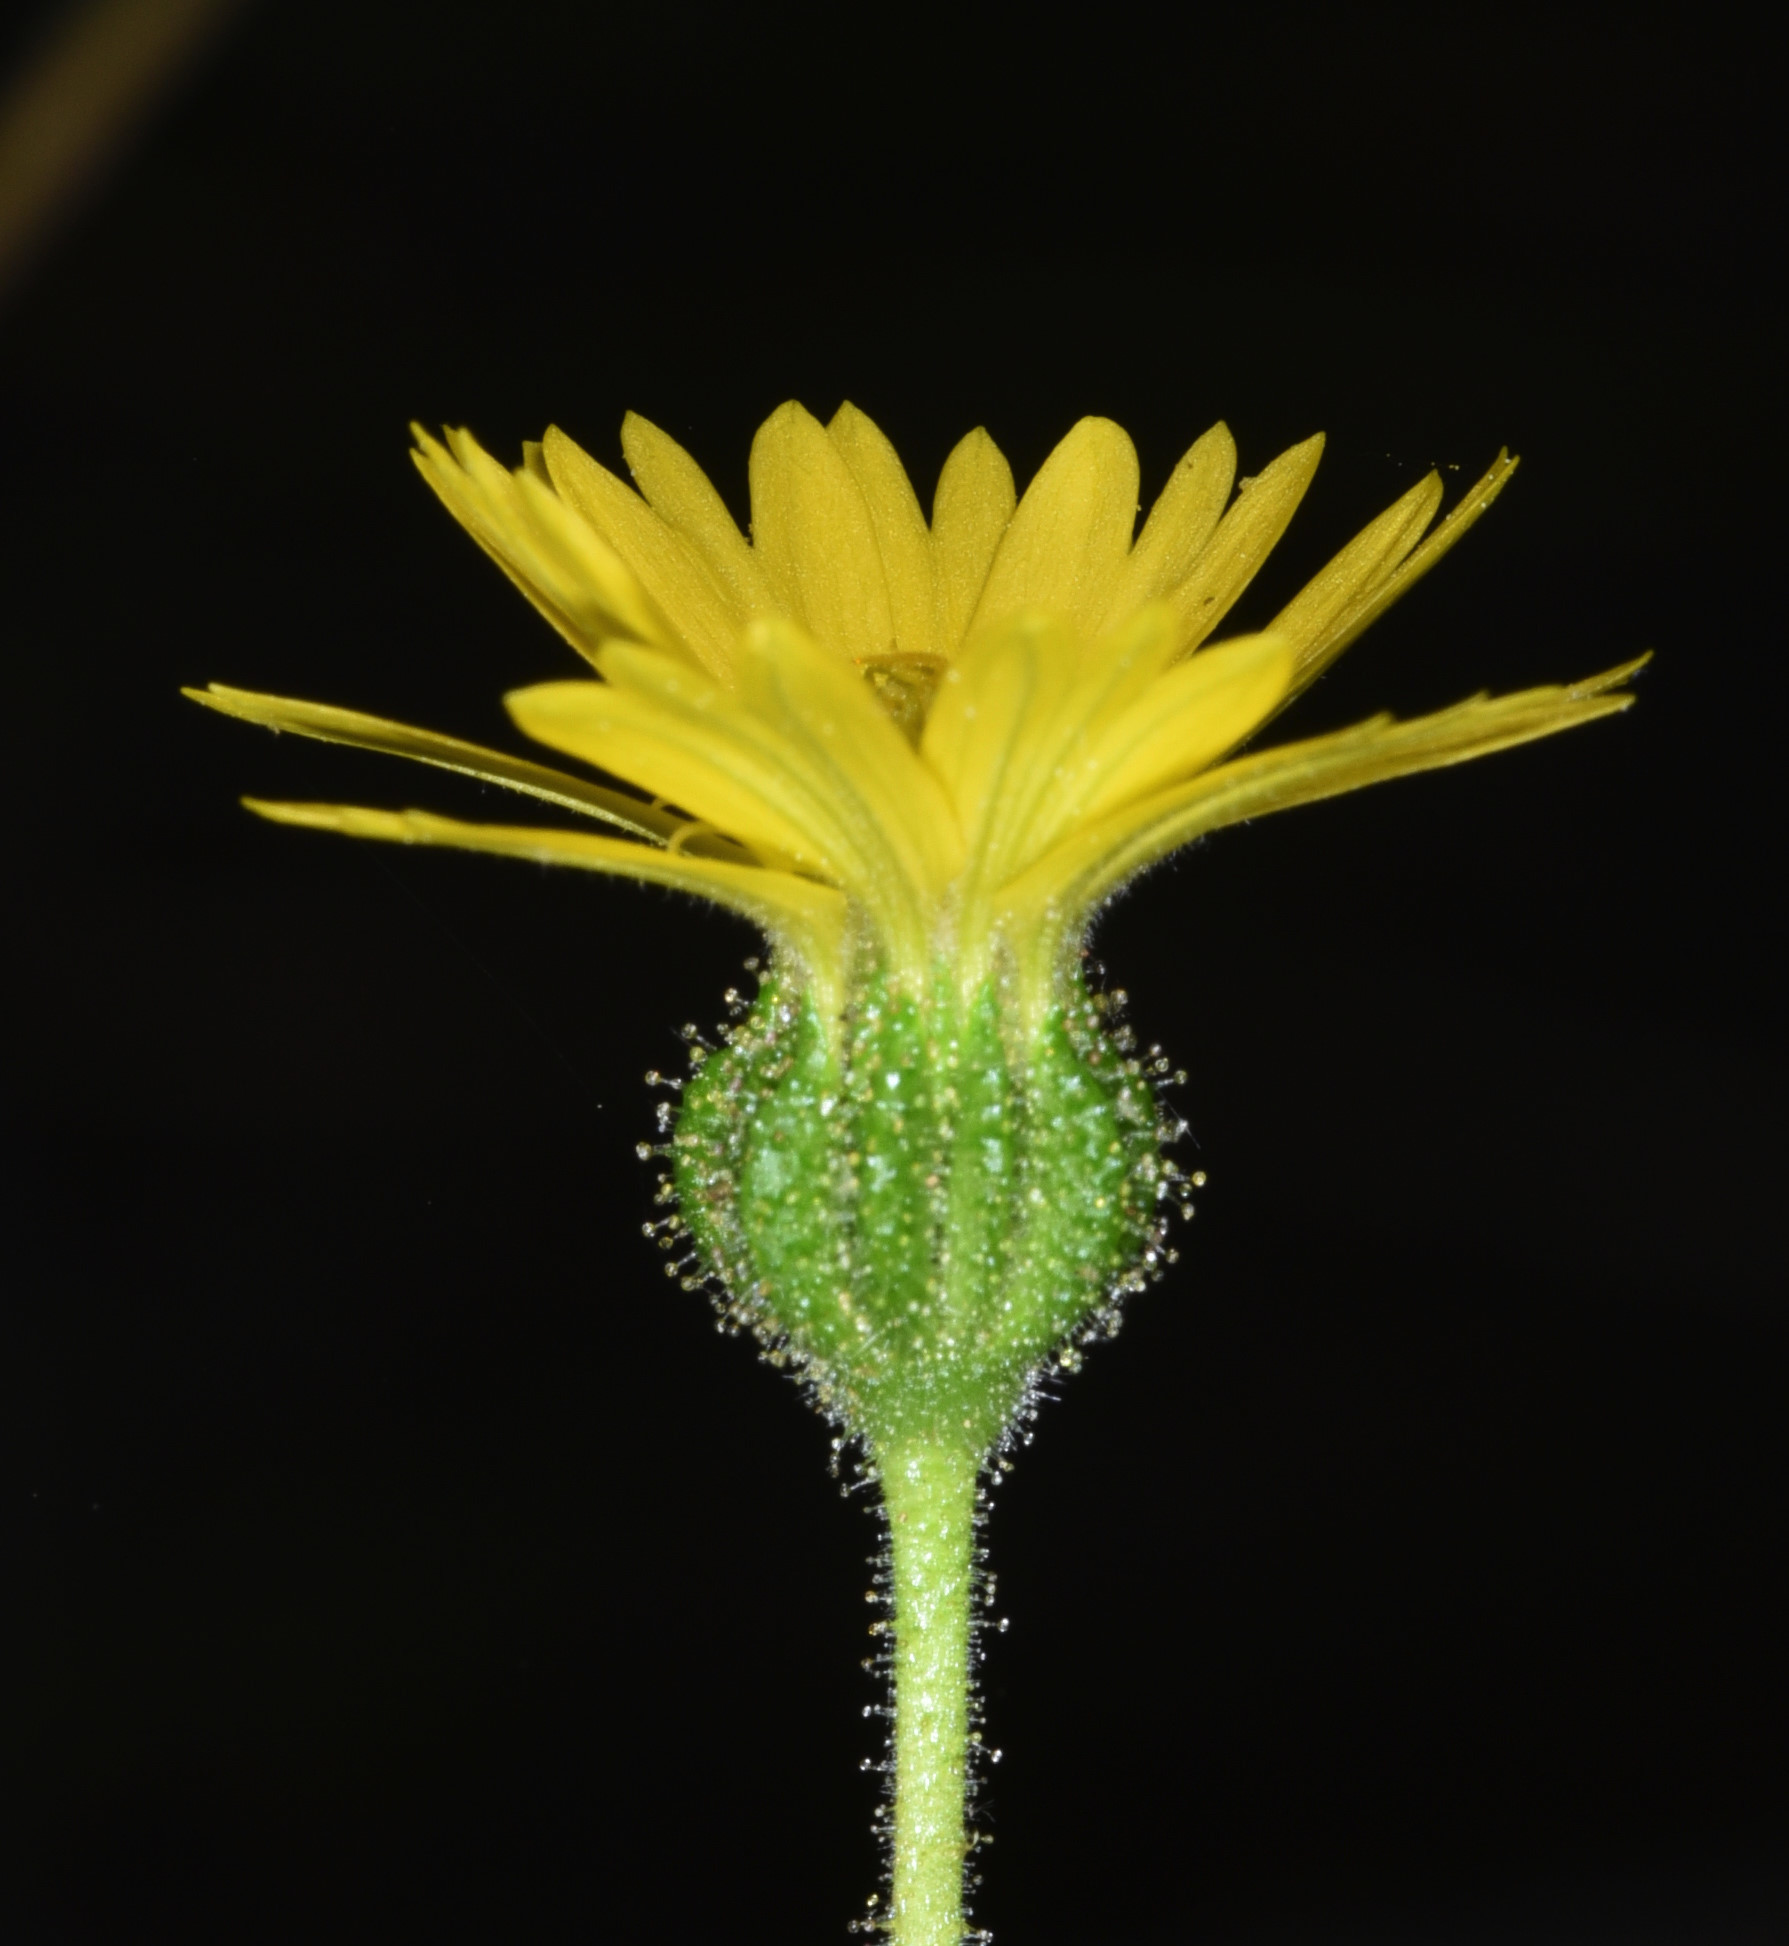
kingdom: Plantae
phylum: Tracheophyta
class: Magnoliopsida
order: Asterales
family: Asteraceae
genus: Anisocarpus
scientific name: Anisocarpus madioides
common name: Woodland madia
